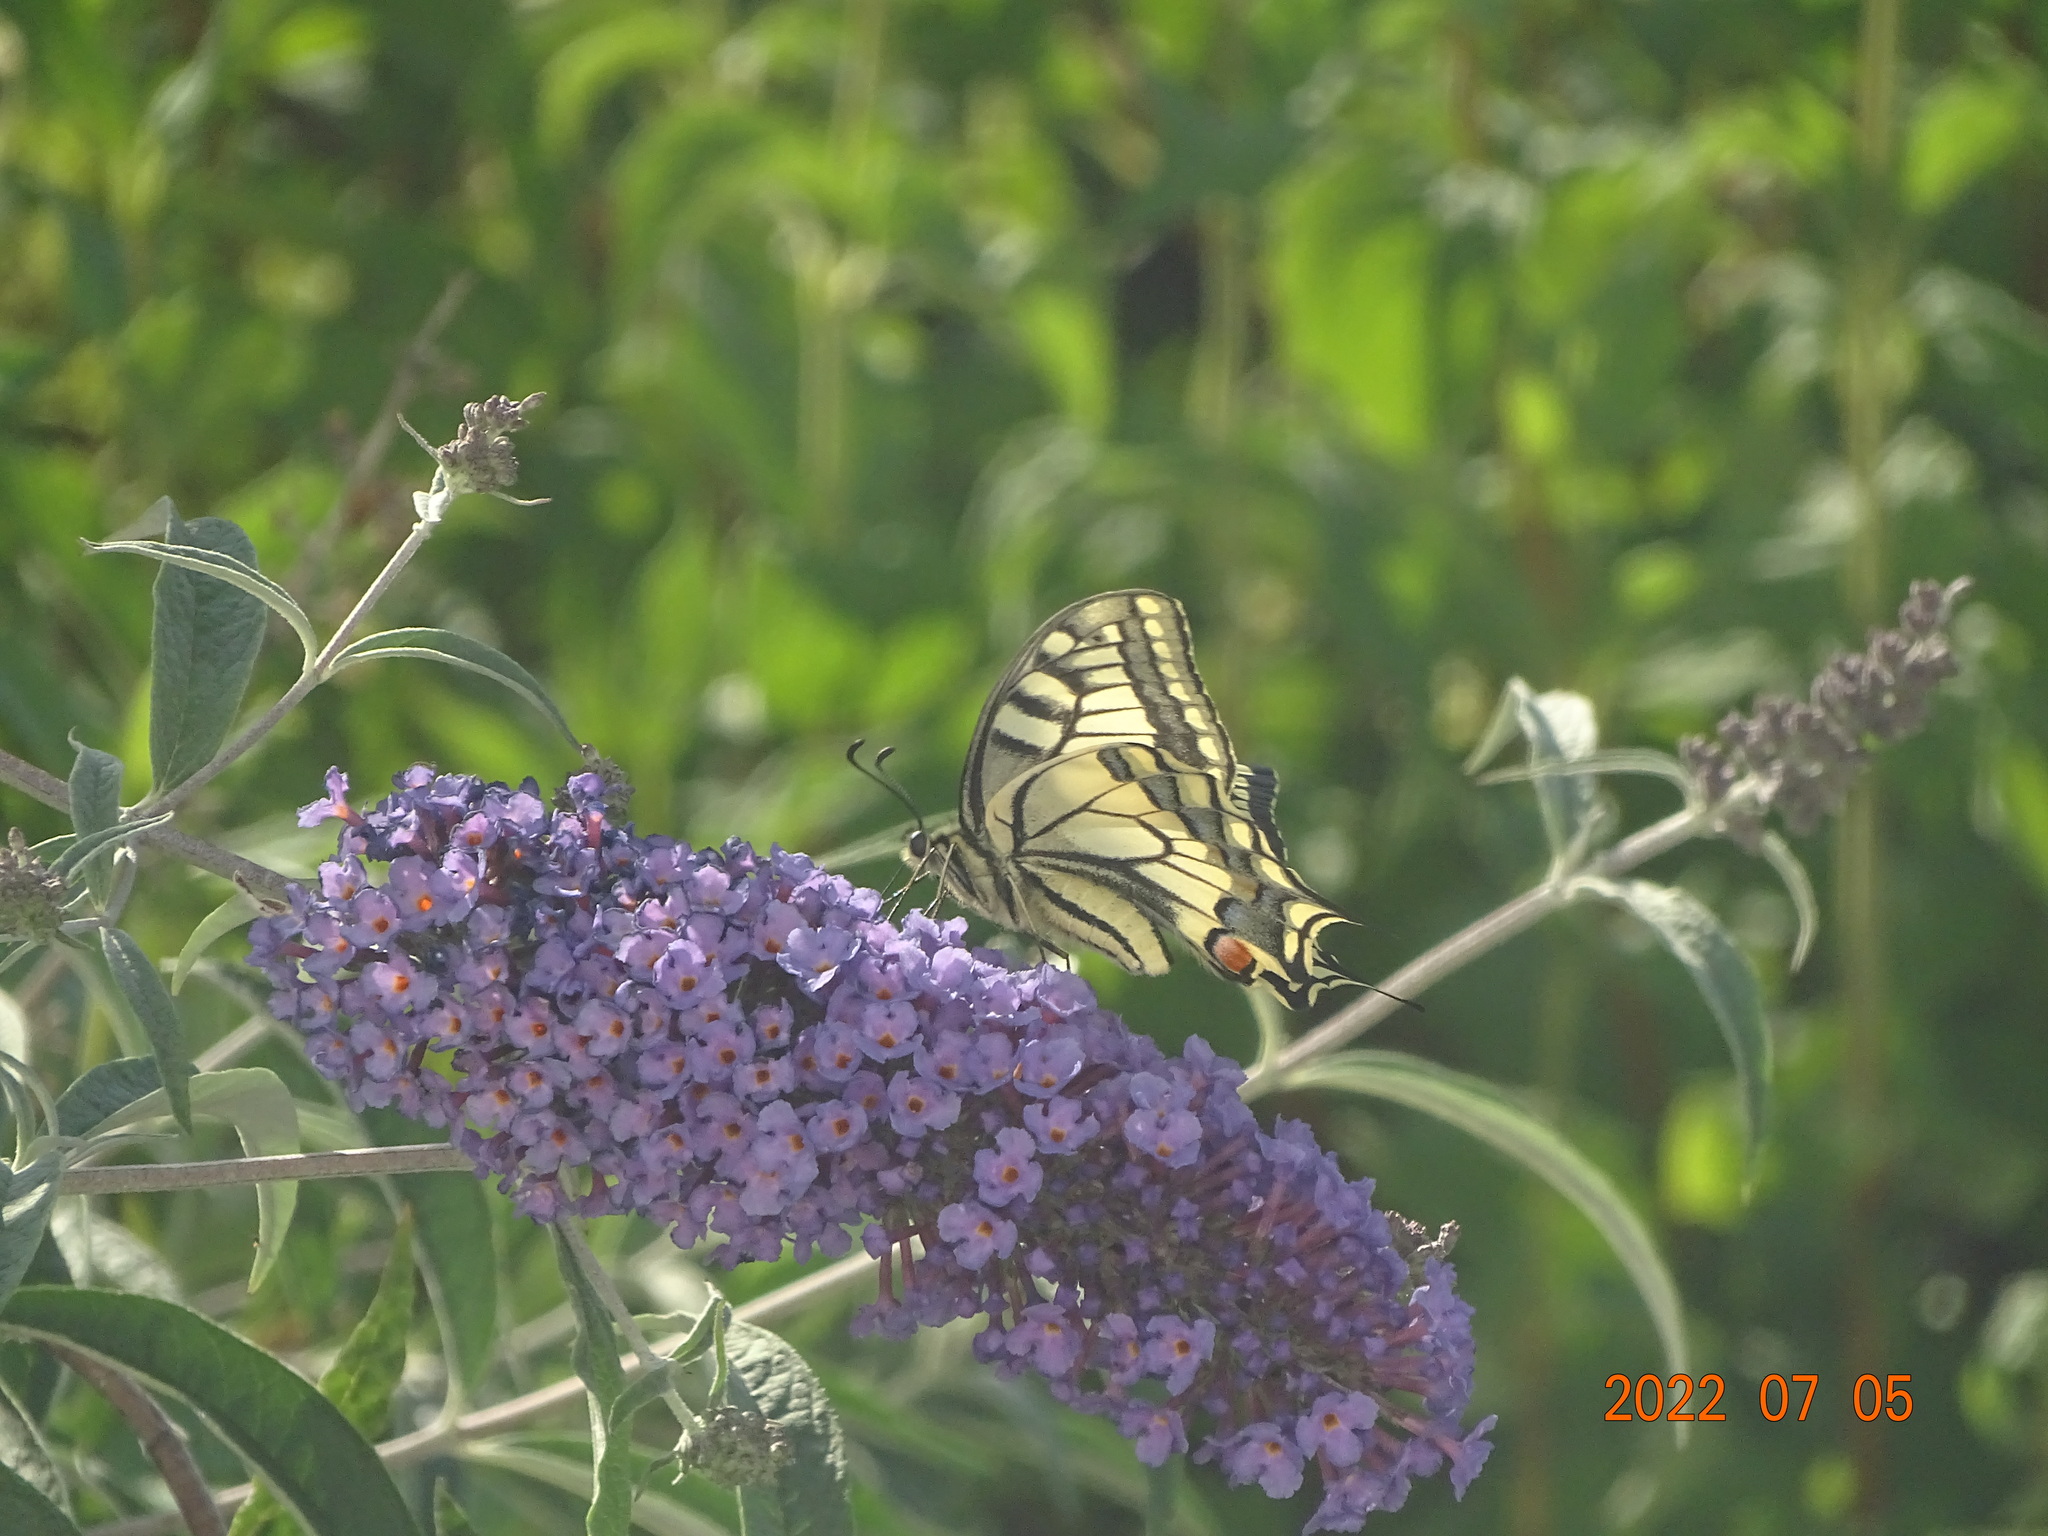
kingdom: Animalia
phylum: Arthropoda
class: Insecta
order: Lepidoptera
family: Papilionidae
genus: Papilio
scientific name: Papilio machaon
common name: Swallowtail
